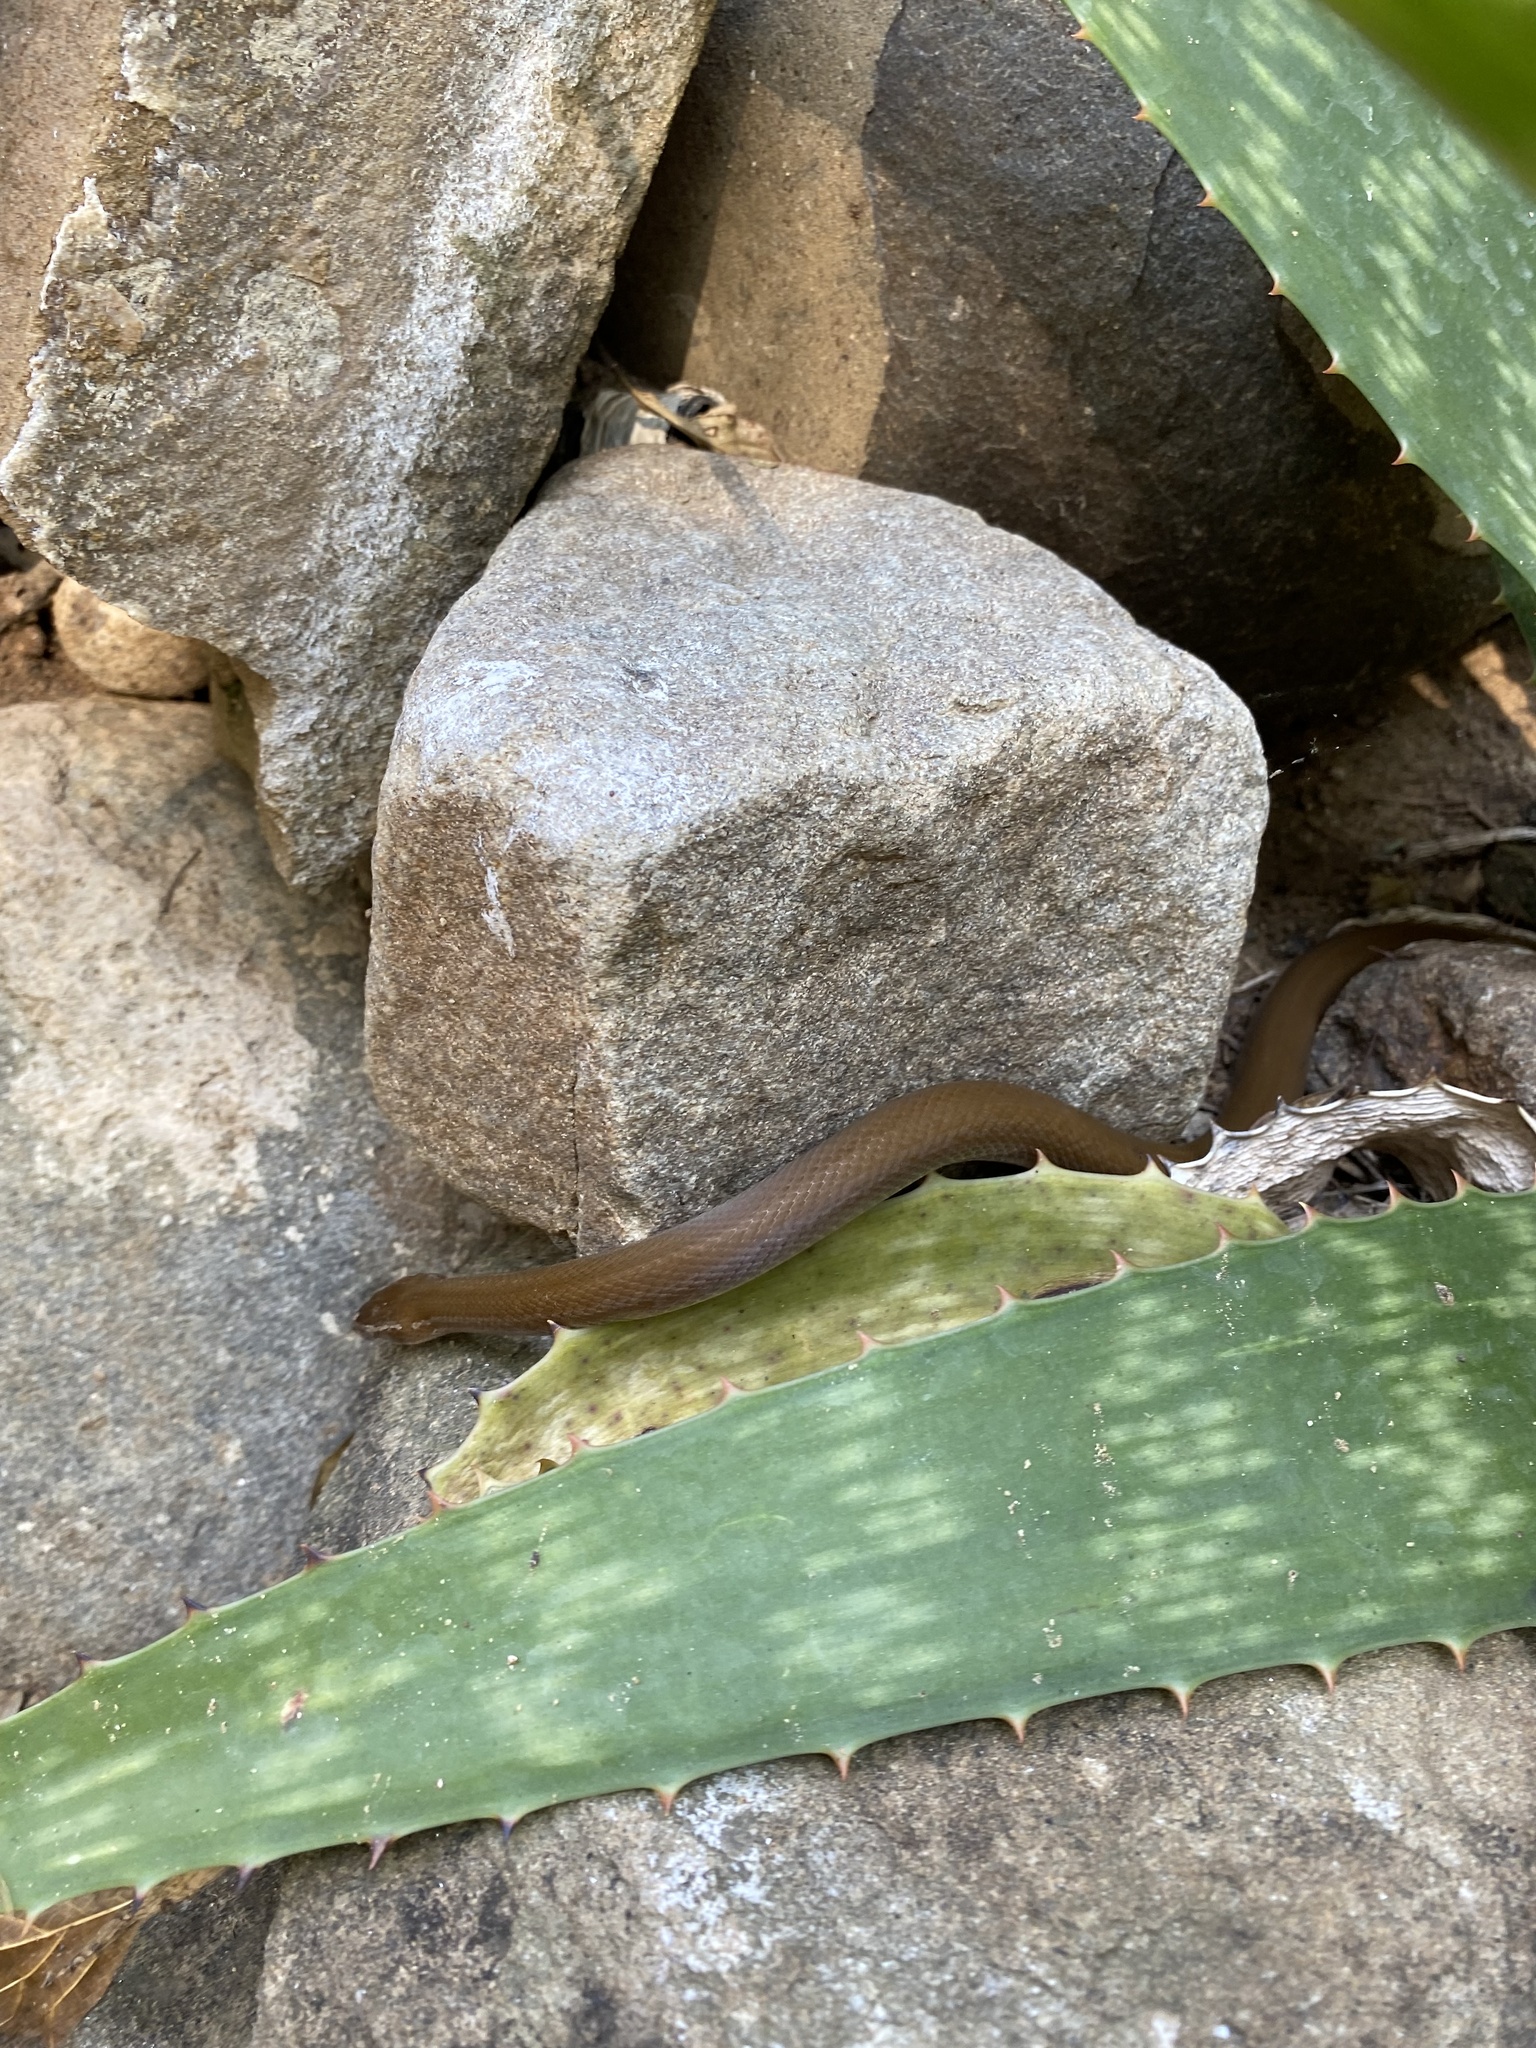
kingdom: Animalia
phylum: Chordata
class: Squamata
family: Lamprophiidae
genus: Boaedon
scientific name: Boaedon capensis
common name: Brown house snake
